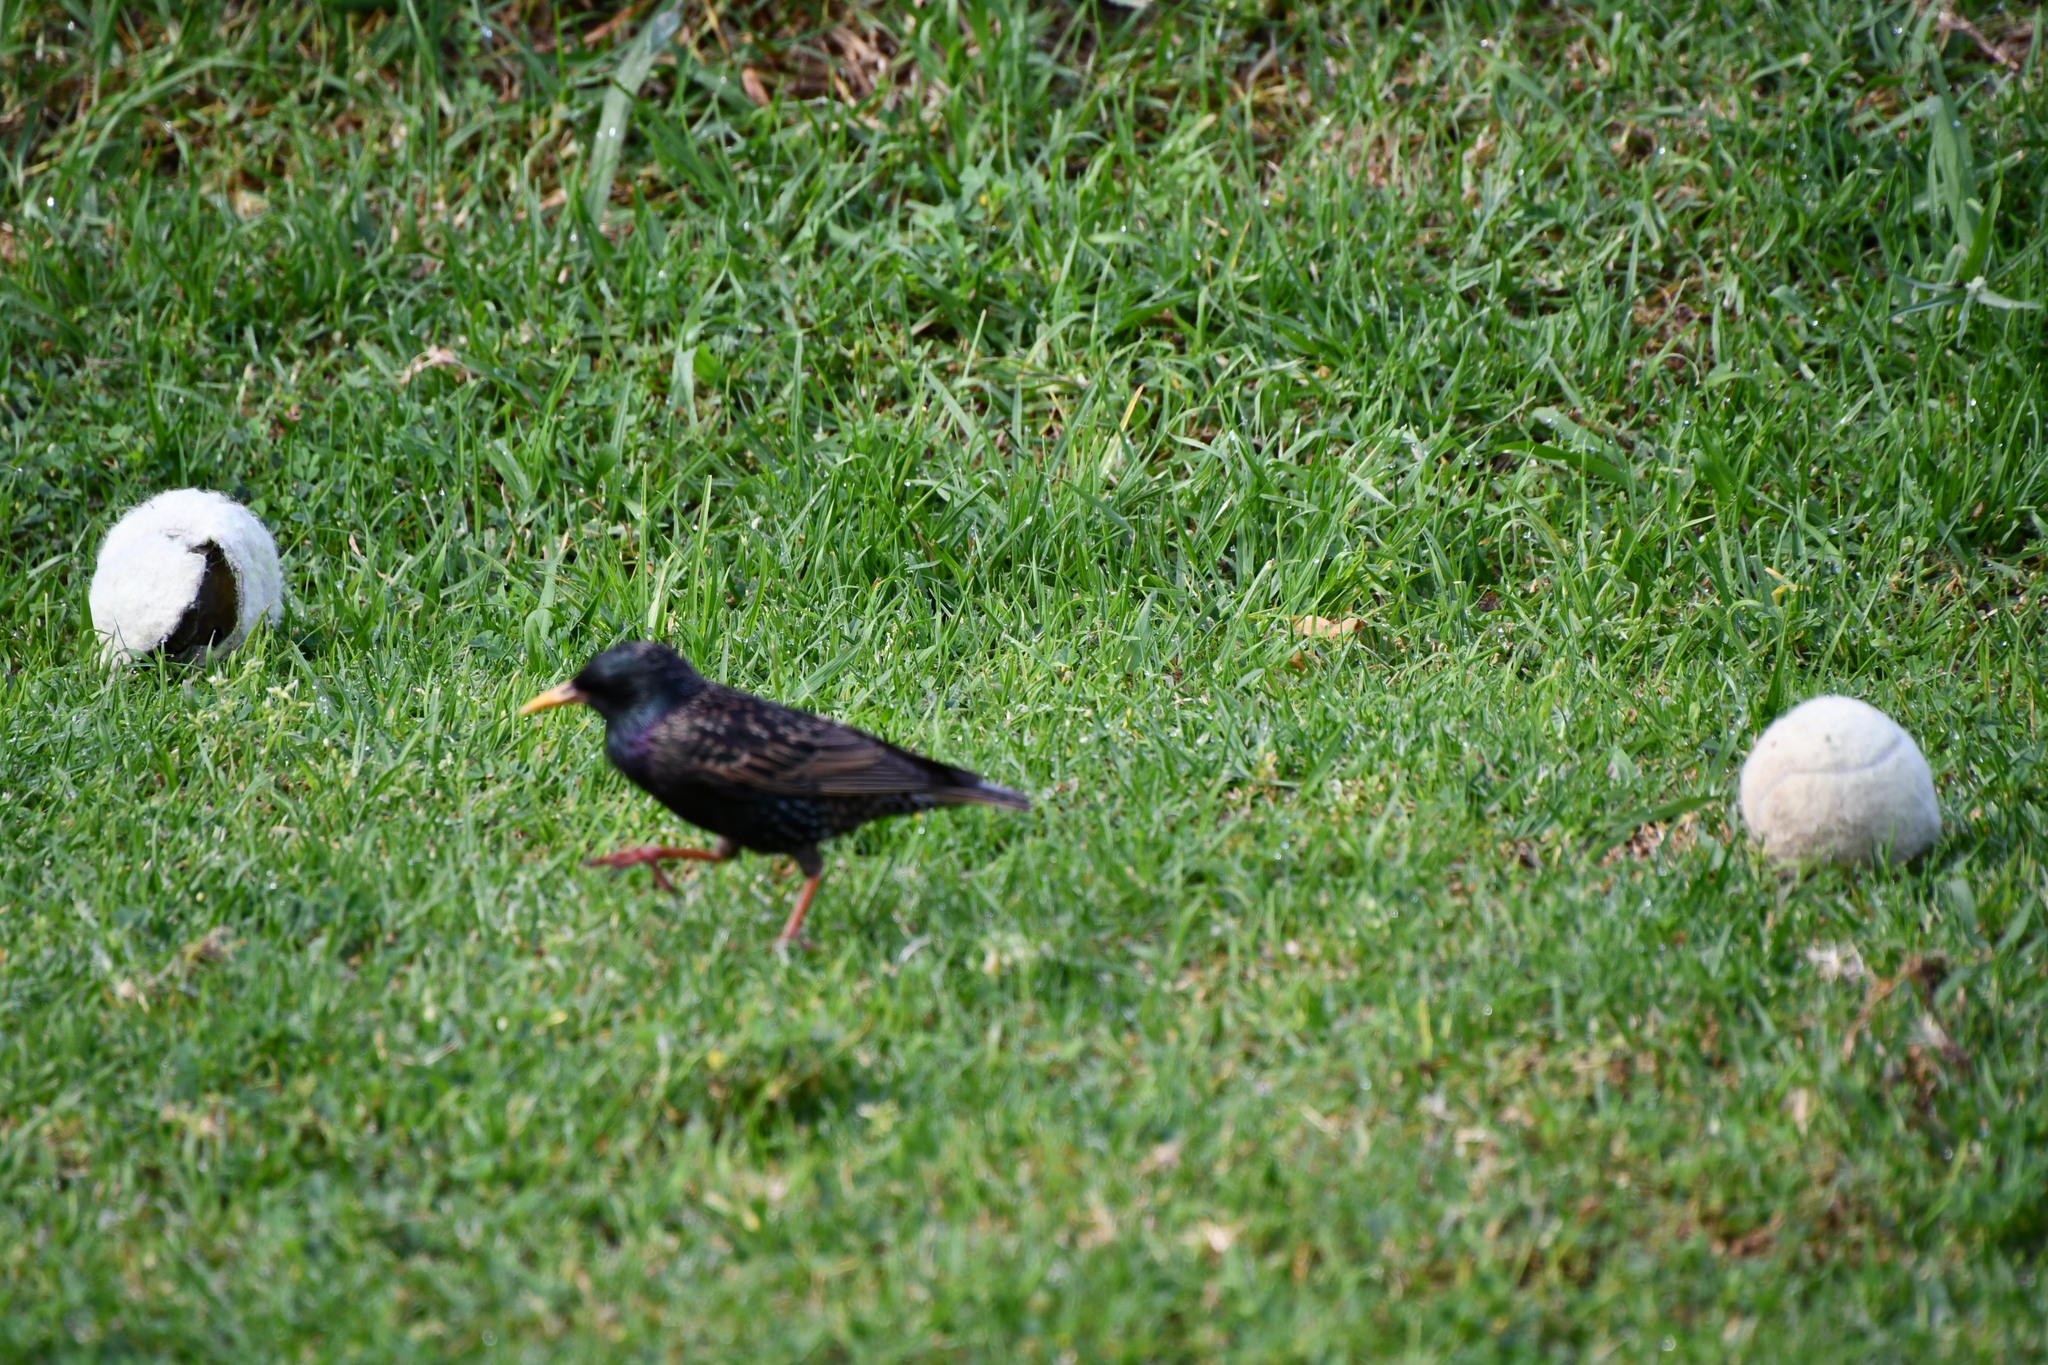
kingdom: Animalia
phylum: Chordata
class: Aves
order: Passeriformes
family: Sturnidae
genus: Sturnus
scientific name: Sturnus vulgaris
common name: Common starling
